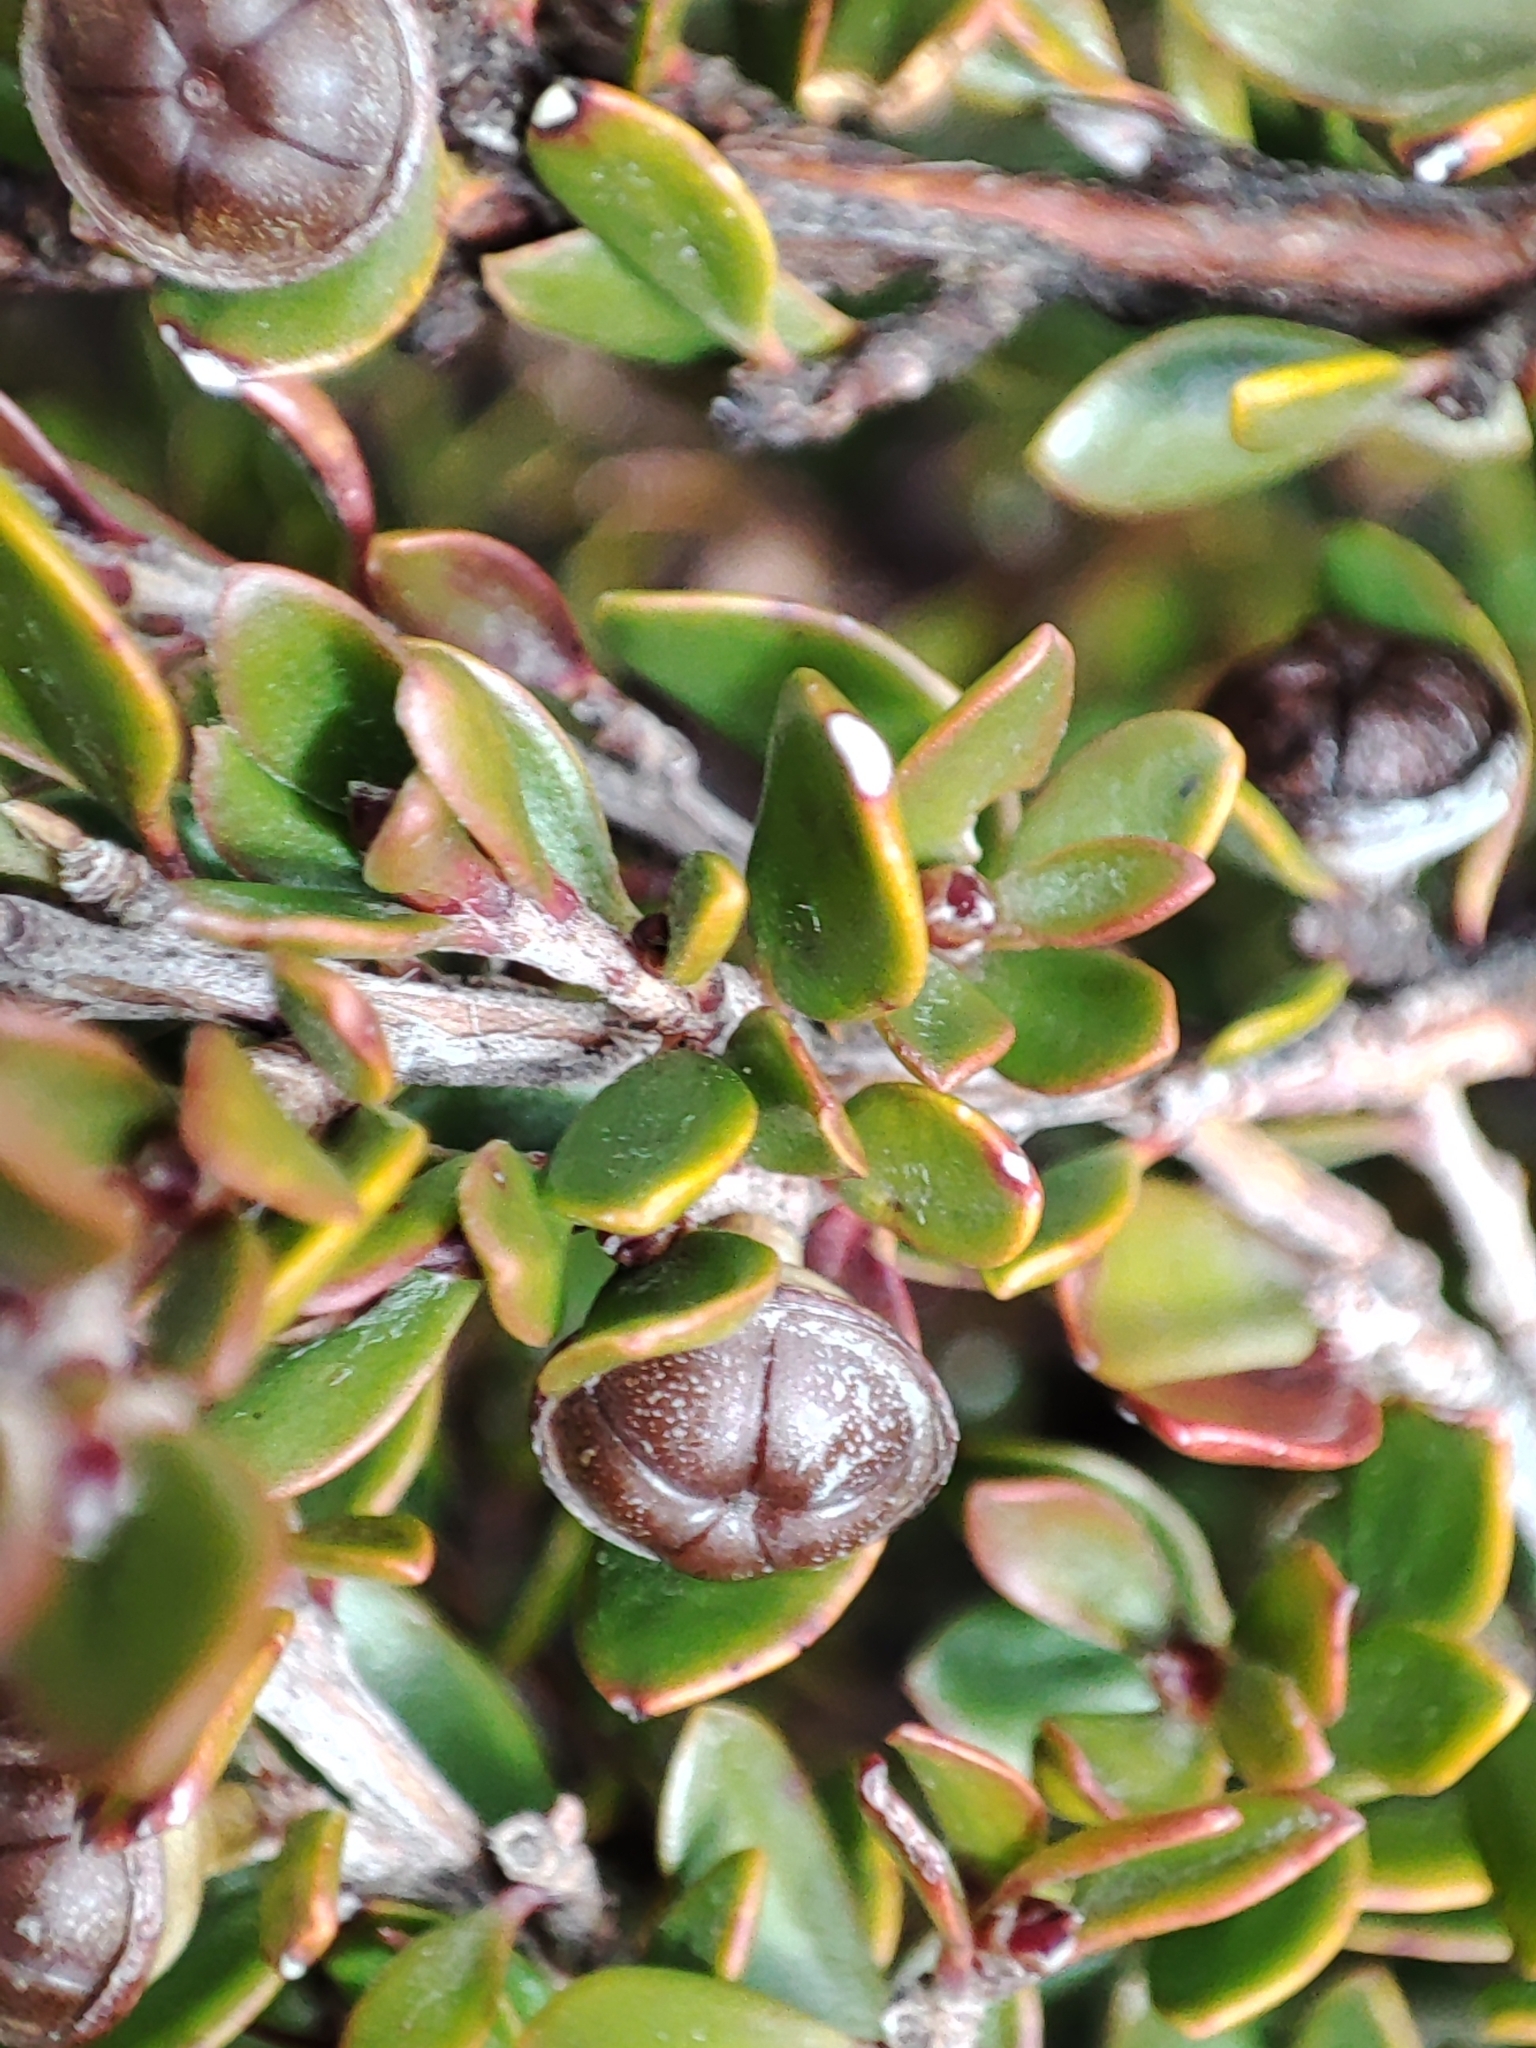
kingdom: Plantae
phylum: Tracheophyta
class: Magnoliopsida
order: Myrtales
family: Myrtaceae
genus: Leptospermum
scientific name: Leptospermum rupestre
